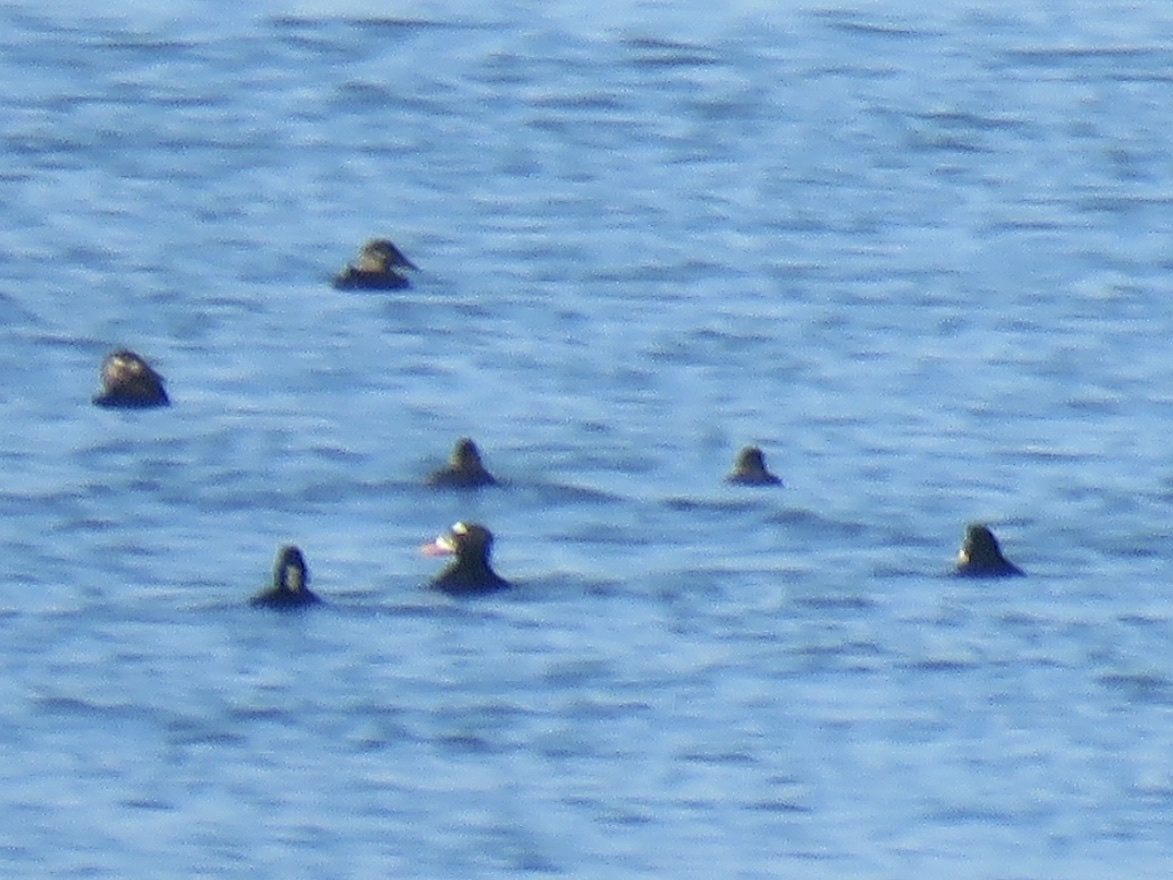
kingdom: Animalia
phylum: Chordata
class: Aves
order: Anseriformes
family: Anatidae
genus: Melanitta
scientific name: Melanitta perspicillata
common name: Surf scoter
